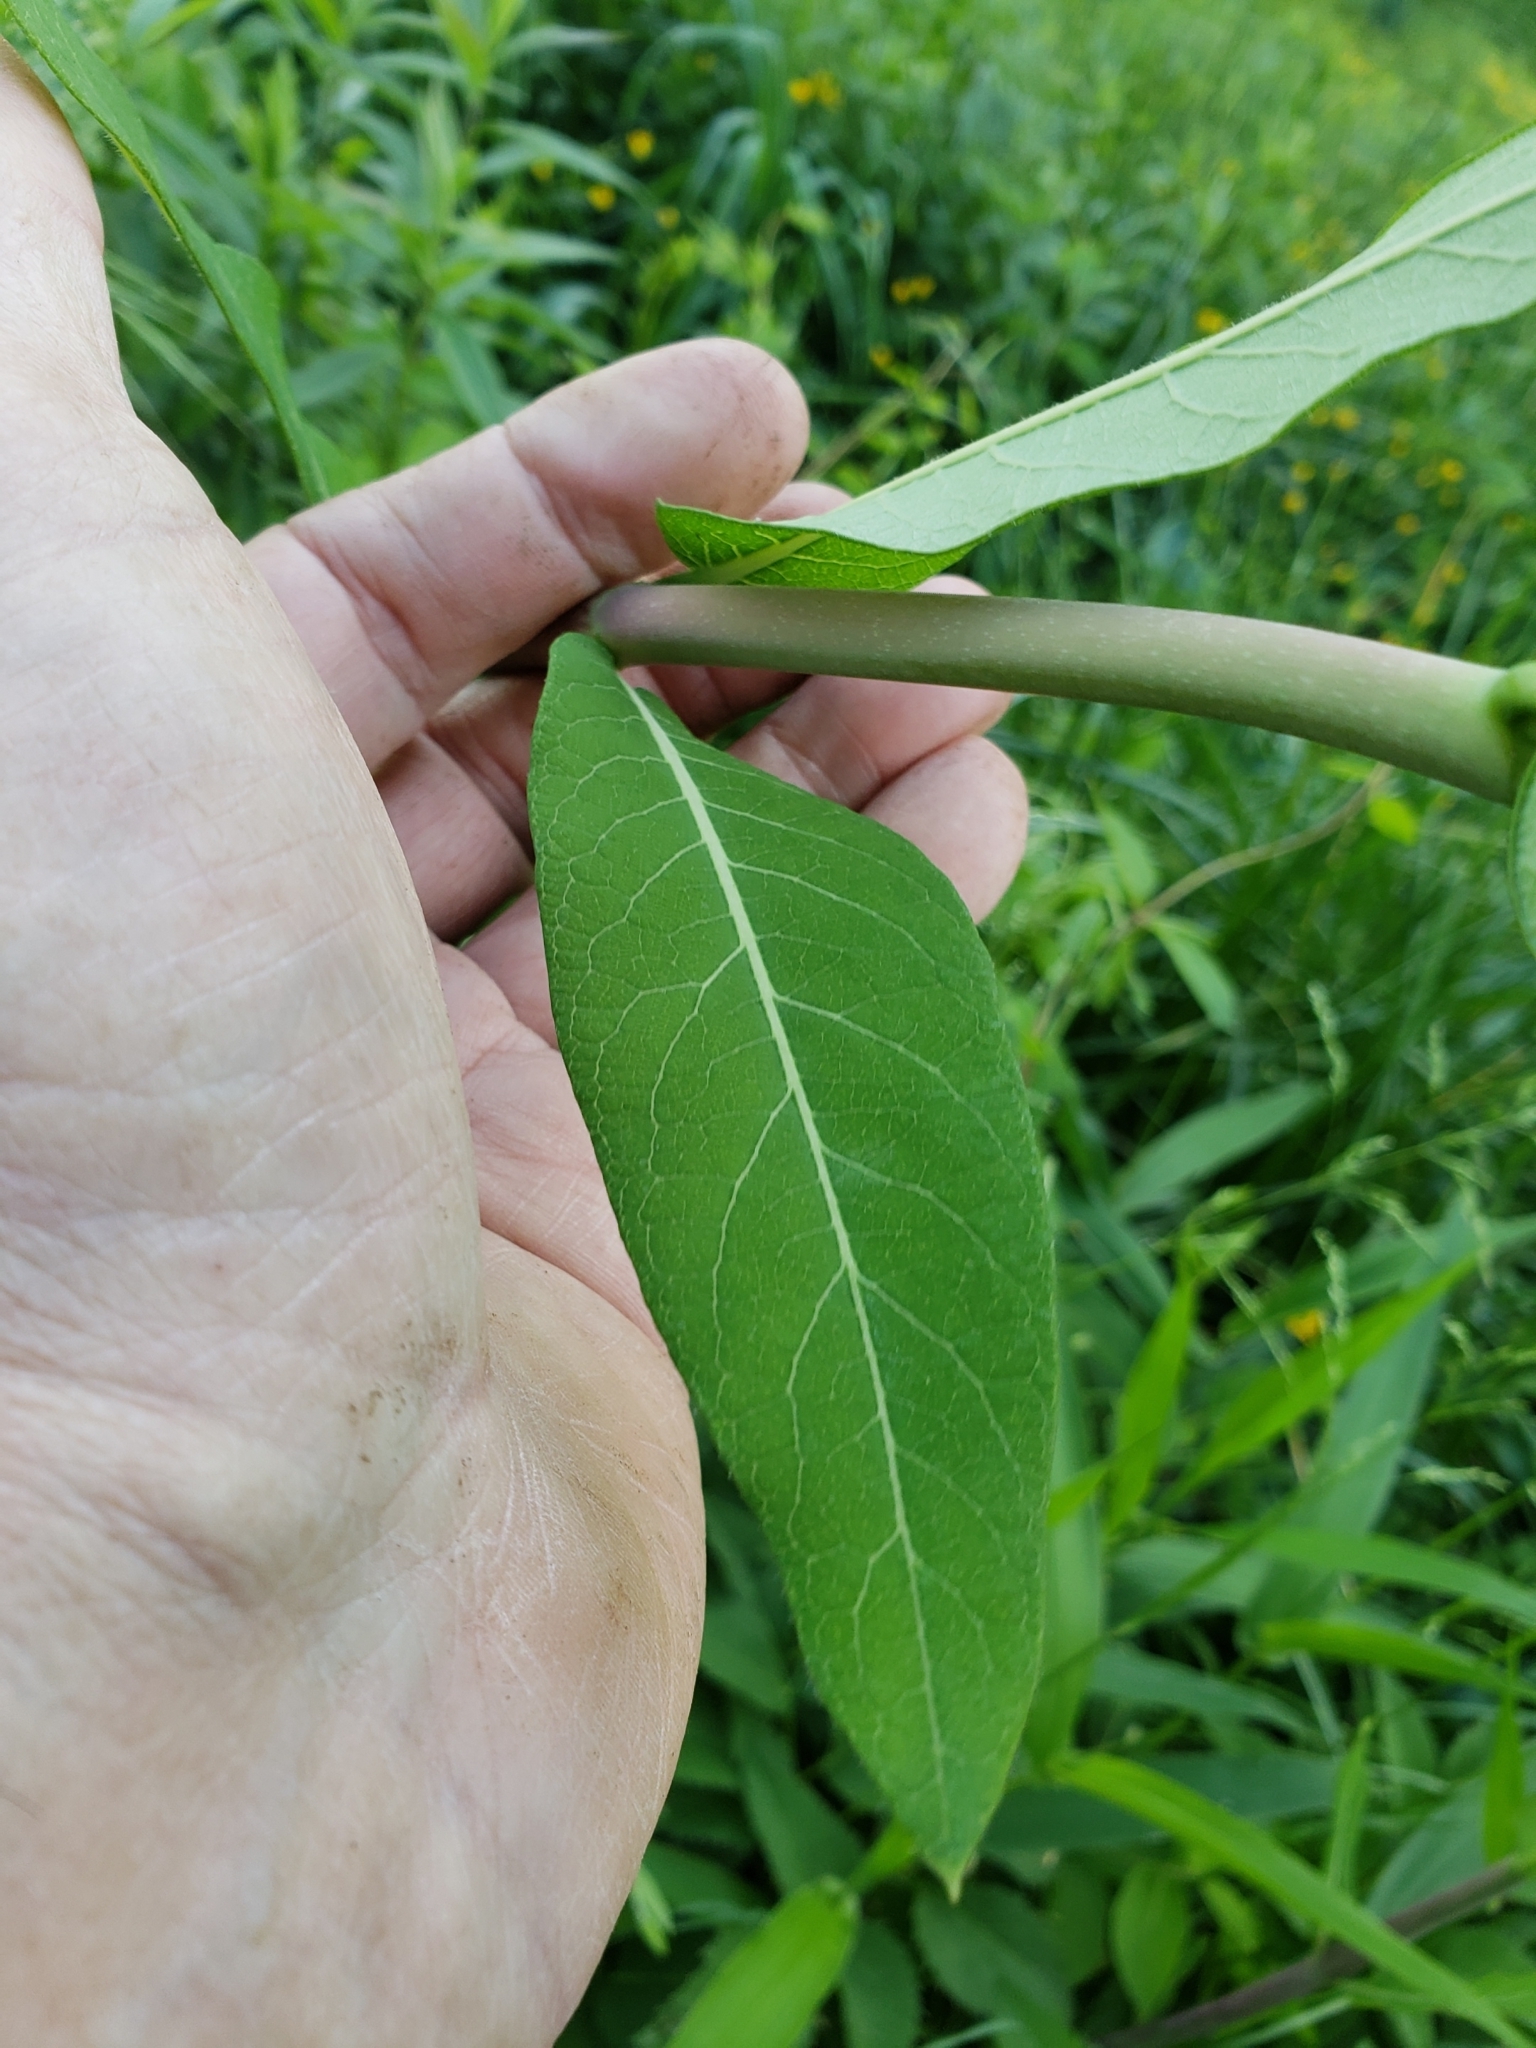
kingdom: Plantae
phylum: Tracheophyta
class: Magnoliopsida
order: Gentianales
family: Apocynaceae
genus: Apocynum
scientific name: Apocynum cannabinum
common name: Hemp dogbane
